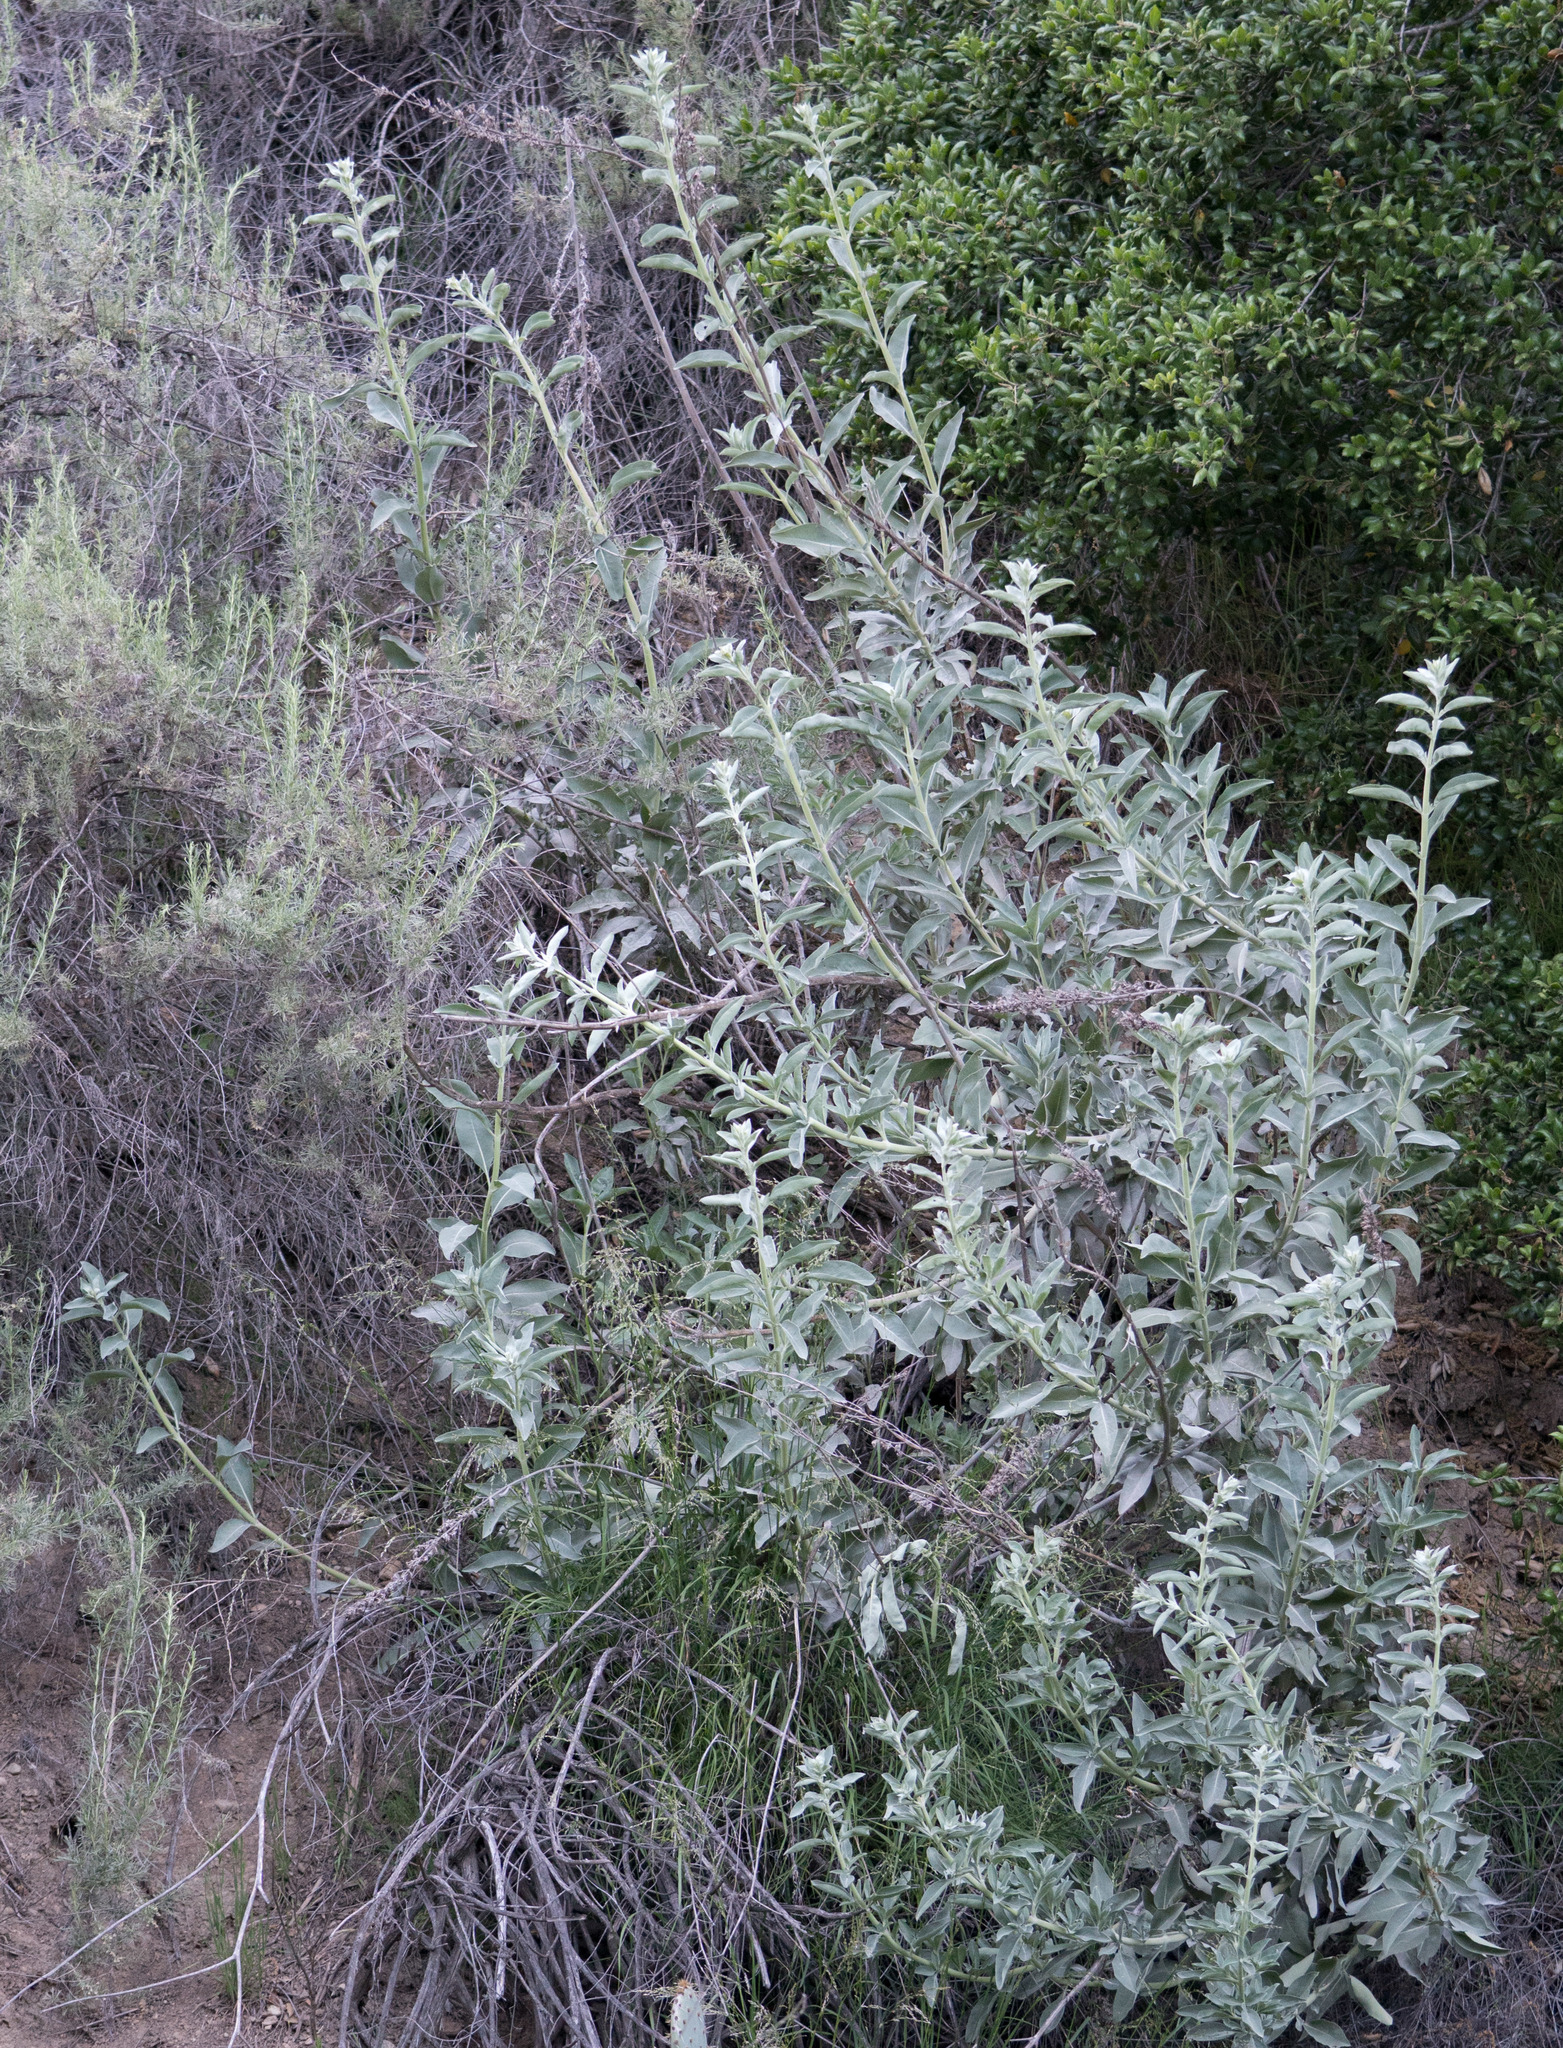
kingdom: Plantae
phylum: Tracheophyta
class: Magnoliopsida
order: Lamiales
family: Lamiaceae
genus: Salvia
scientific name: Salvia apiana
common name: White sage
